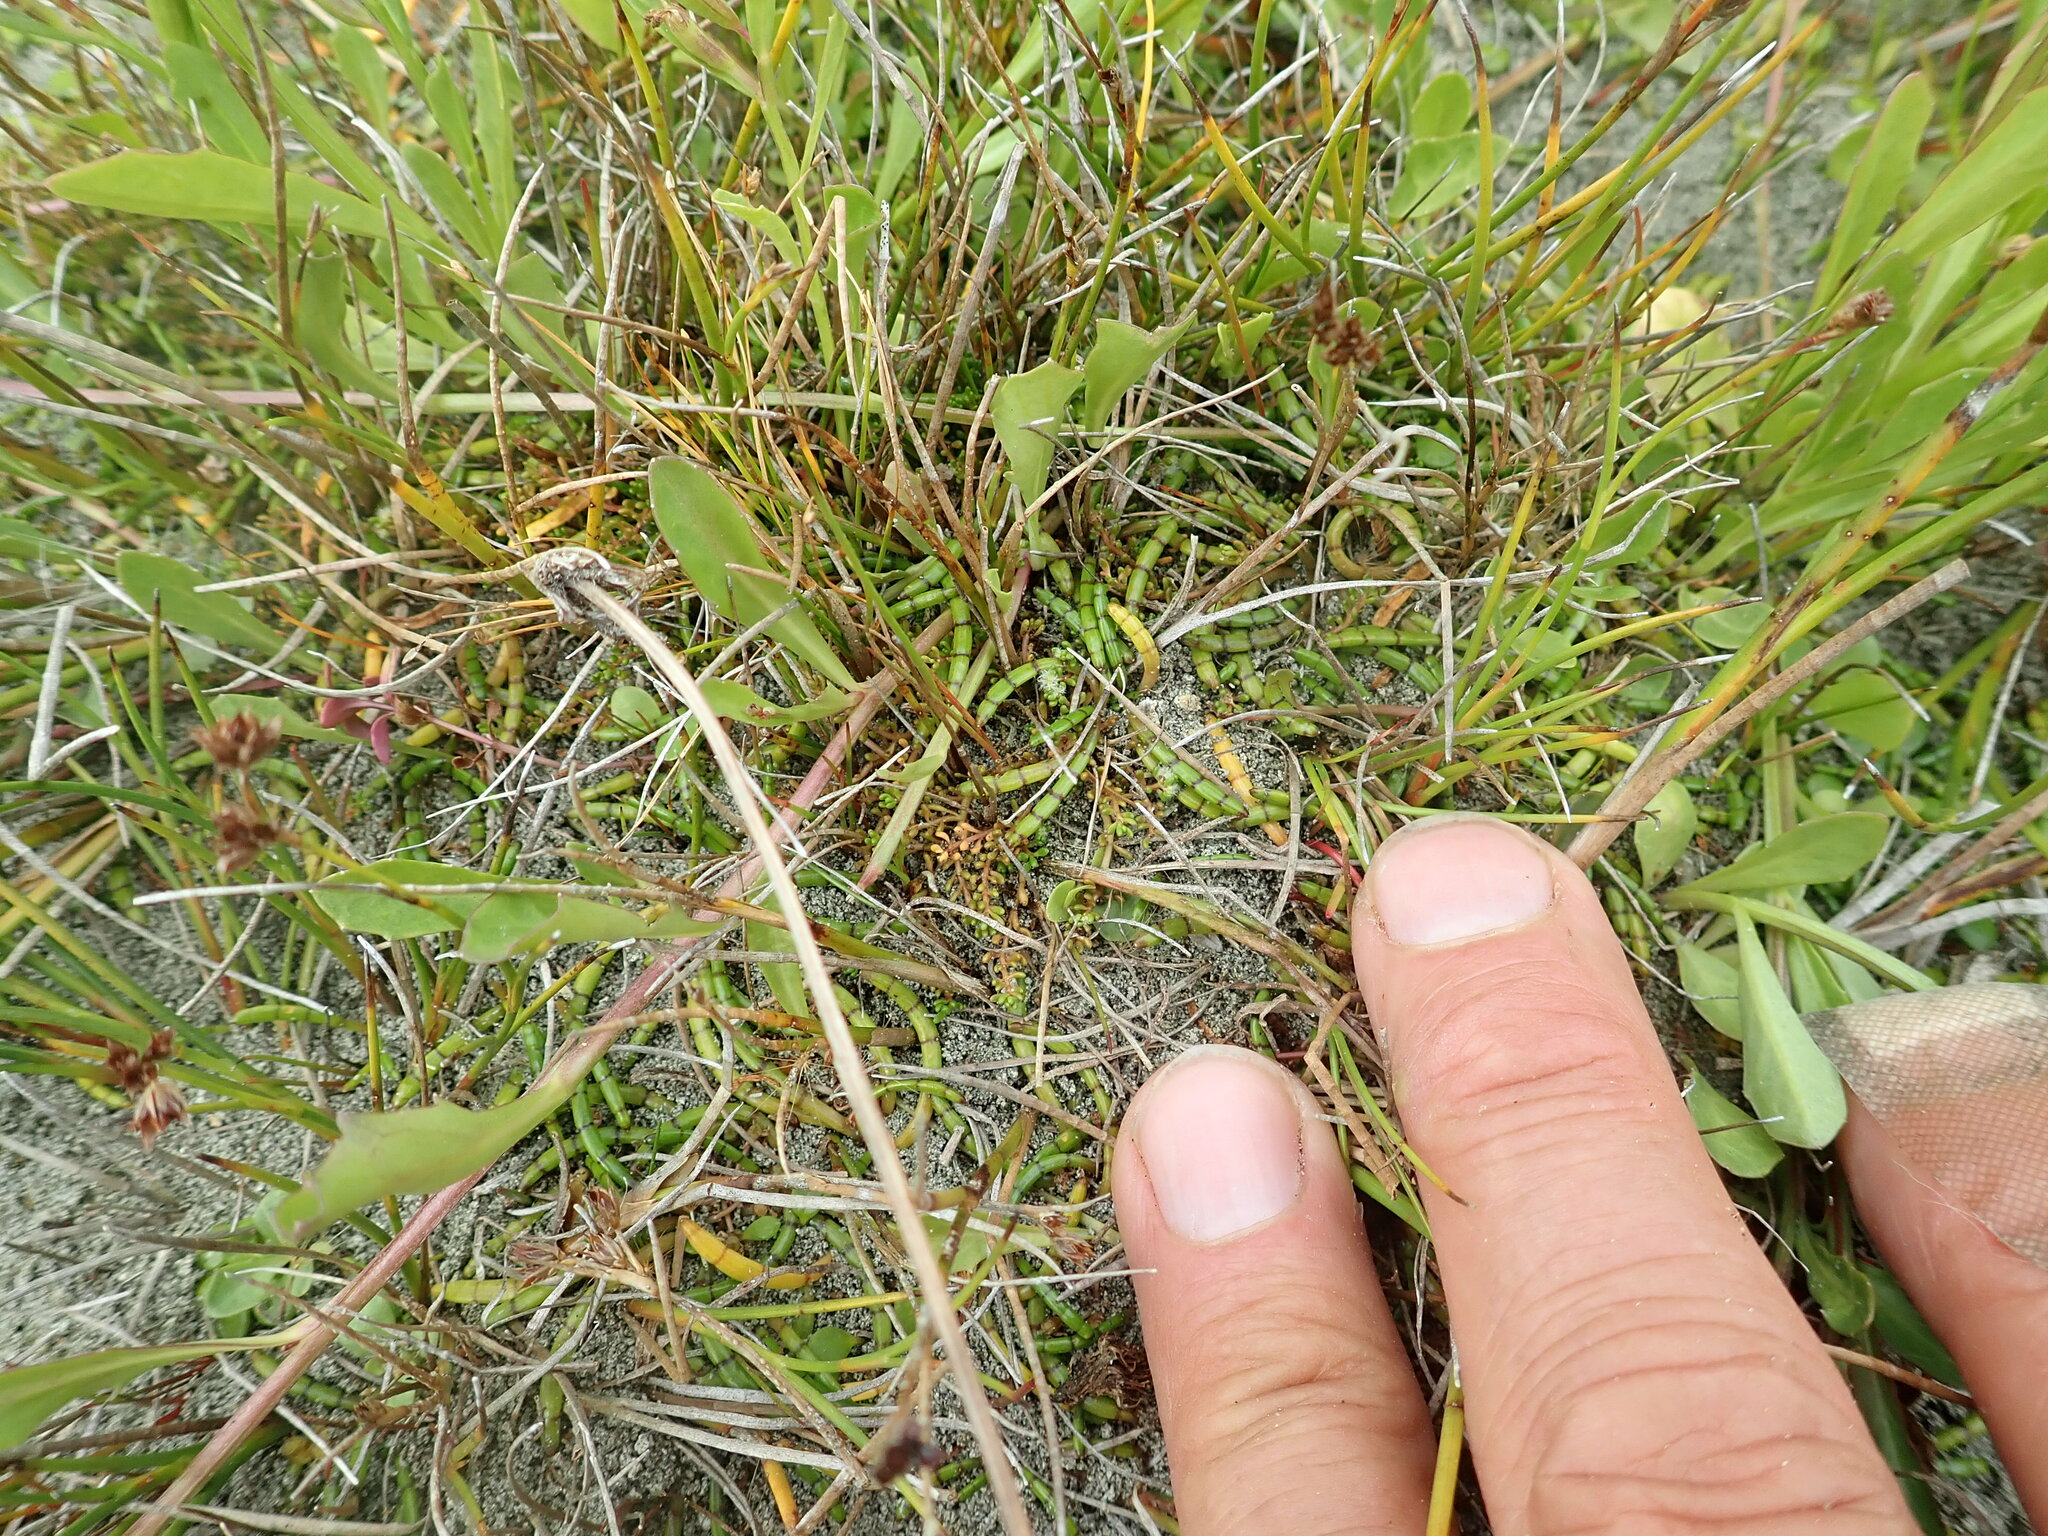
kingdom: Plantae
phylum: Tracheophyta
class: Magnoliopsida
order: Saxifragales
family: Haloragaceae
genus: Myriophyllum
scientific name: Myriophyllum votschii
